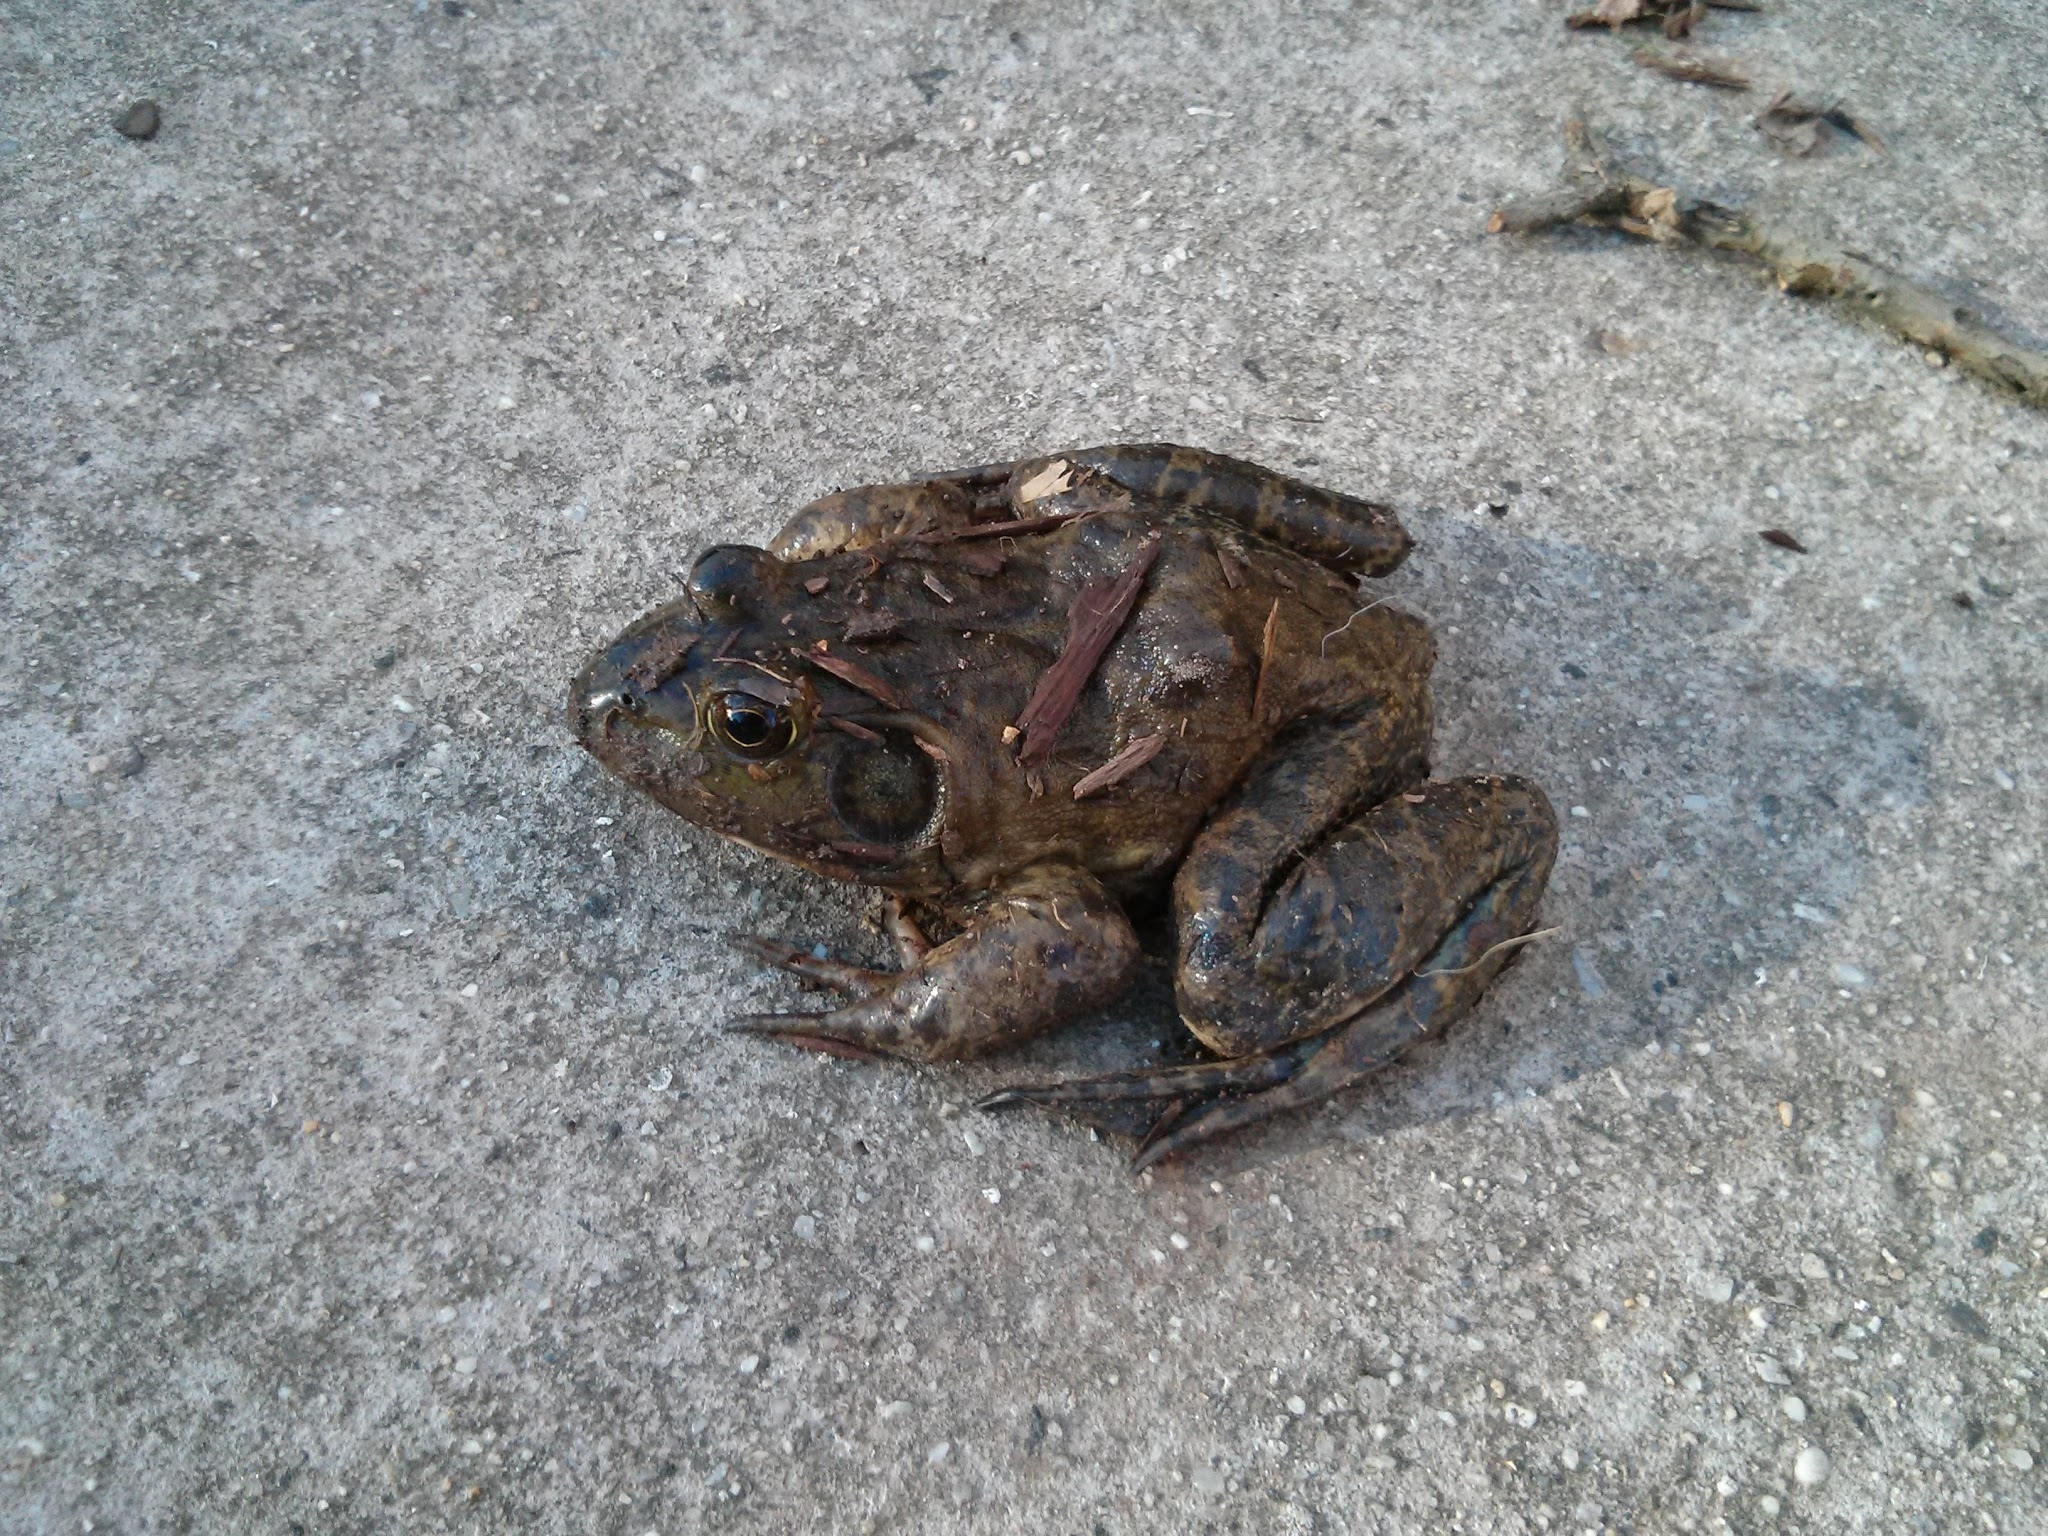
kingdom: Animalia
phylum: Chordata
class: Amphibia
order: Anura
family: Ranidae
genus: Lithobates
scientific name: Lithobates catesbeianus
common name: American bullfrog
